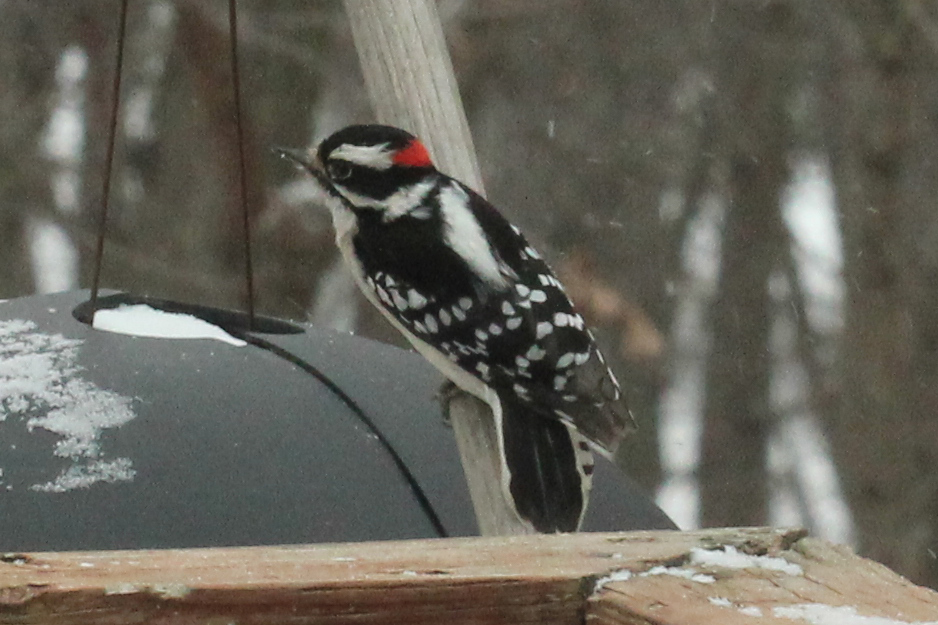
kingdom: Animalia
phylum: Chordata
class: Aves
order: Piciformes
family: Picidae
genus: Dryobates
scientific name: Dryobates pubescens
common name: Downy woodpecker
